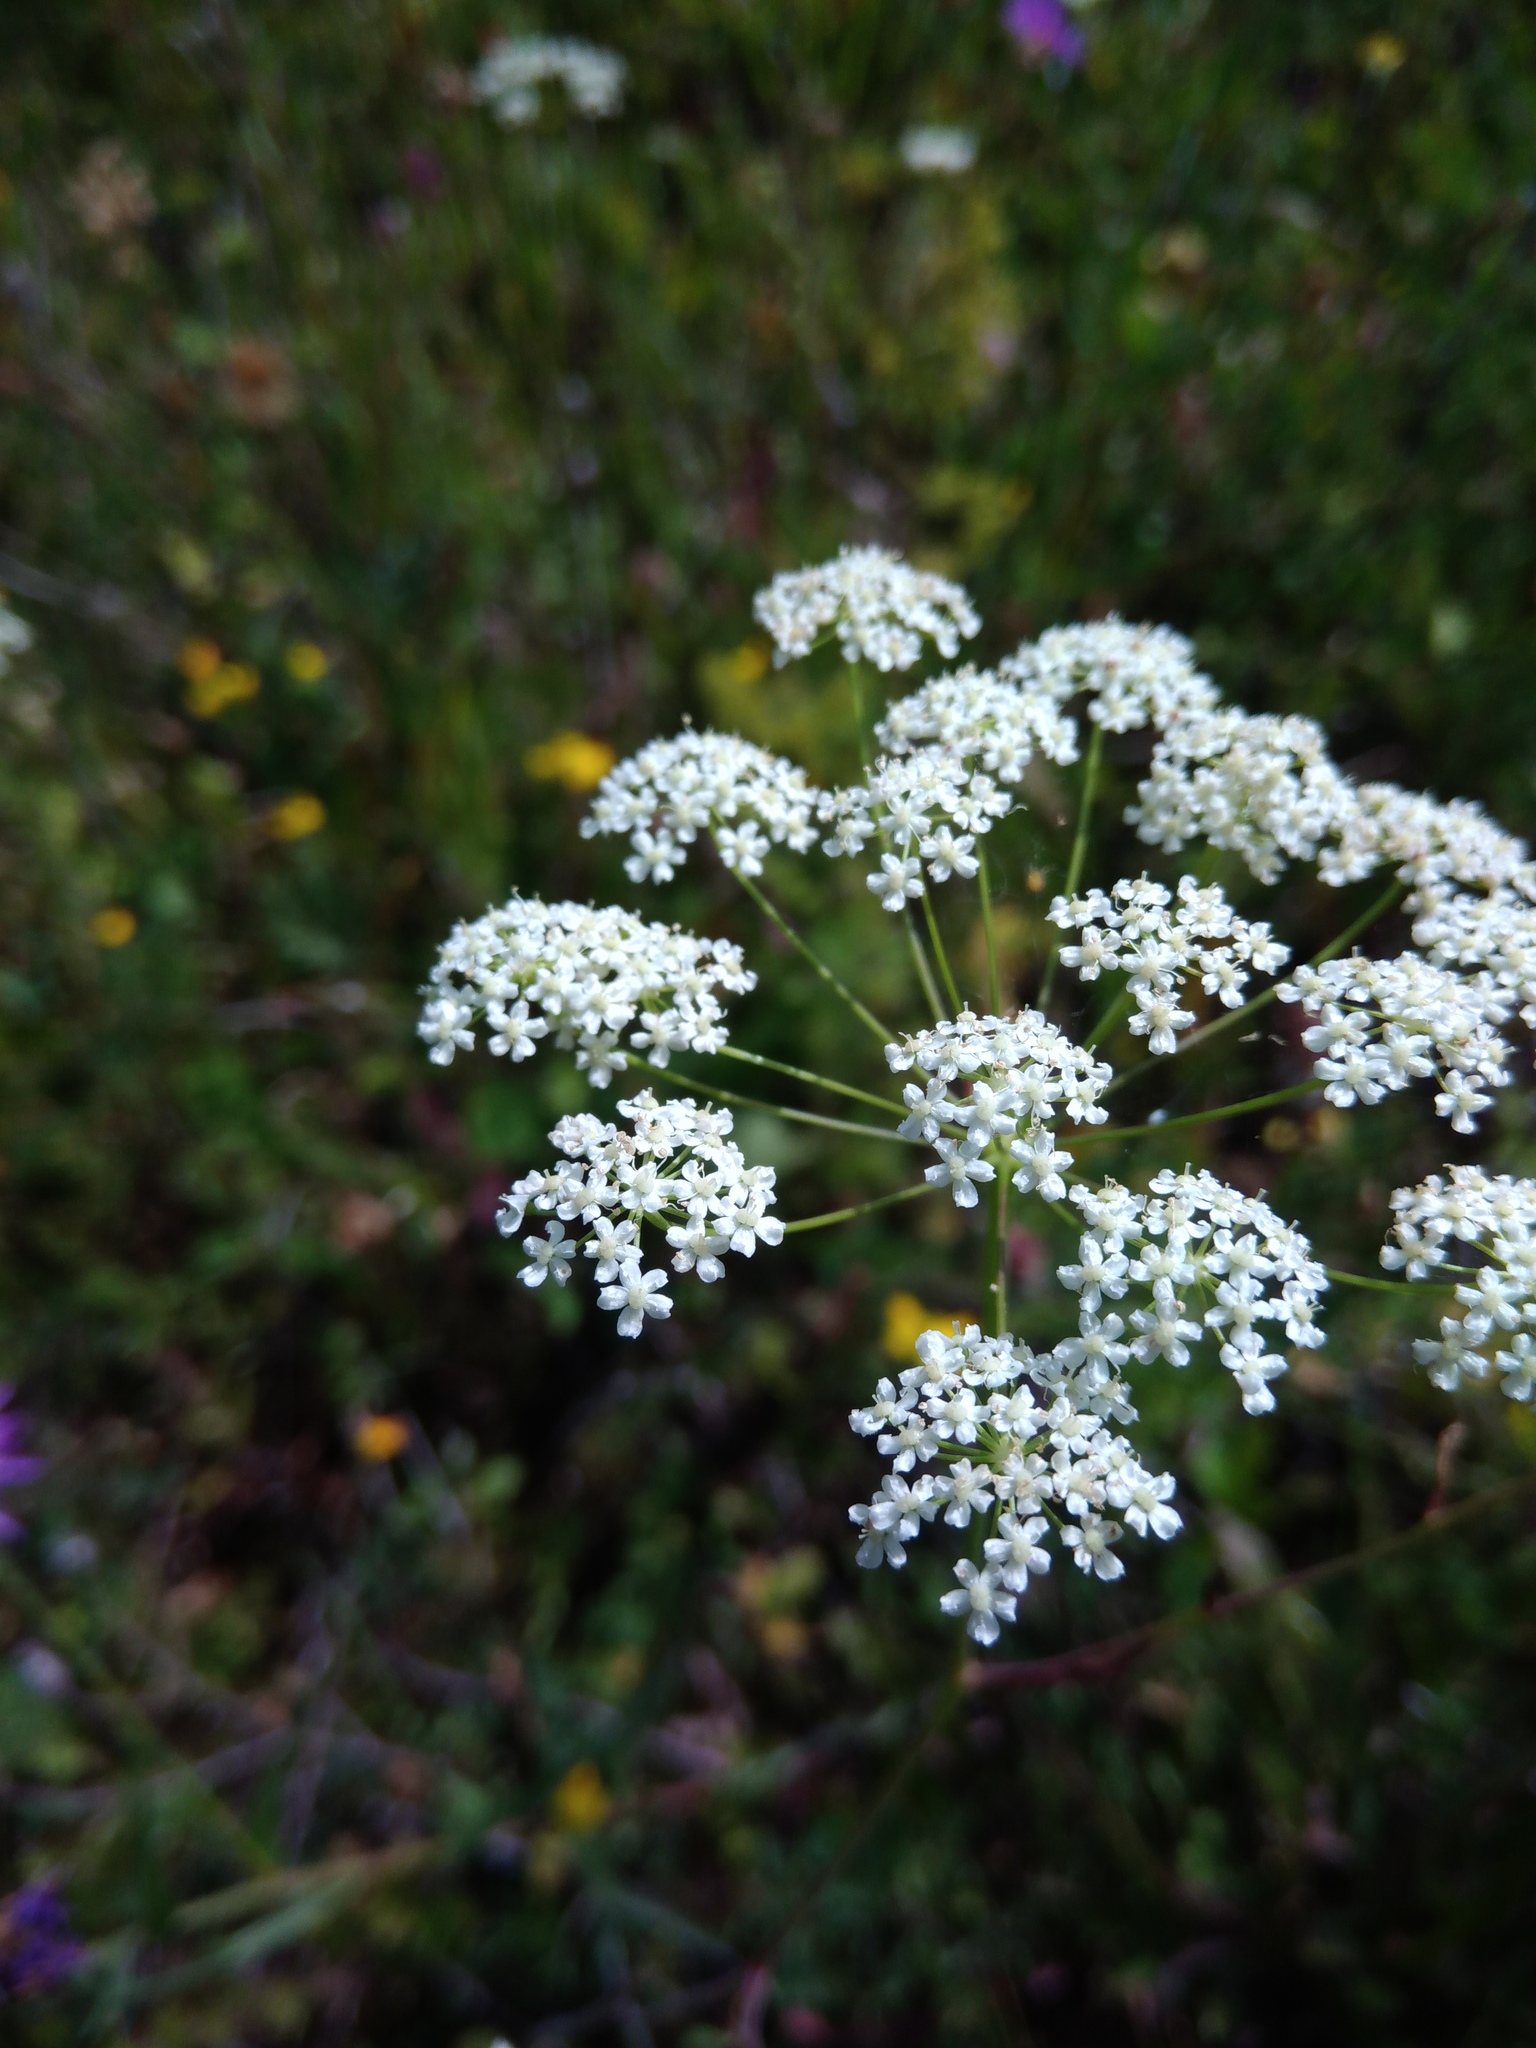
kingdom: Plantae
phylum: Tracheophyta
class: Magnoliopsida
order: Apiales
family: Apiaceae
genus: Pimpinella
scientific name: Pimpinella saxifraga
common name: Burnet-saxifrage
